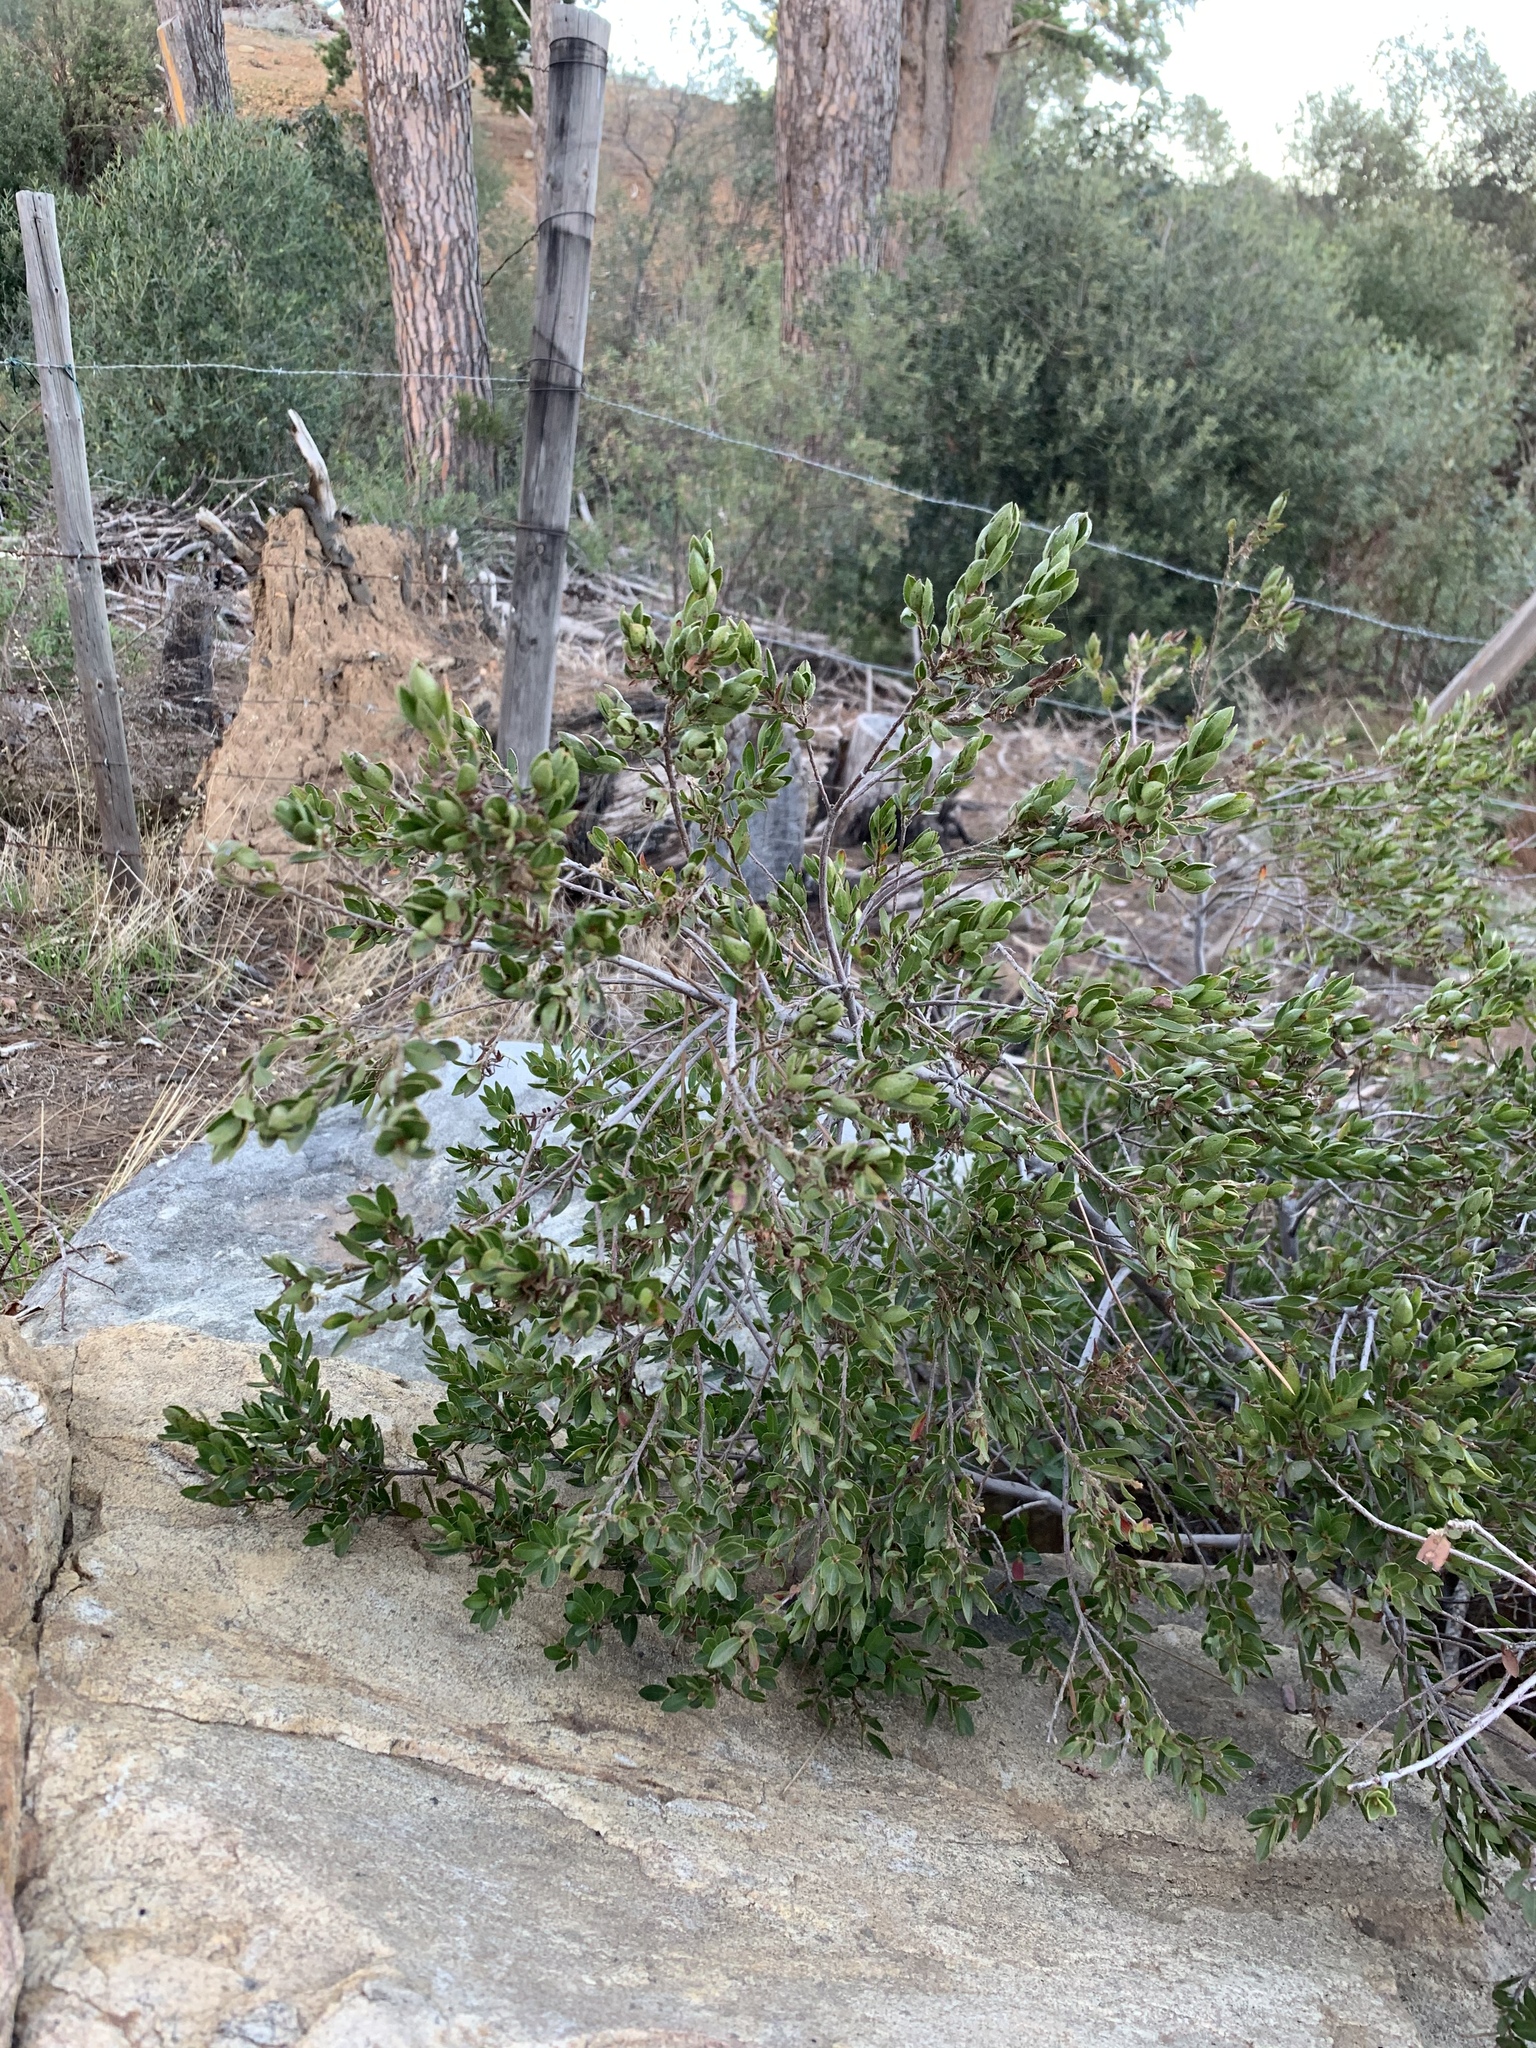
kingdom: Plantae
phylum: Tracheophyta
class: Magnoliopsida
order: Ericales
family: Ebenaceae
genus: Diospyros
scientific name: Diospyros glabra
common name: Fynbos star apple
